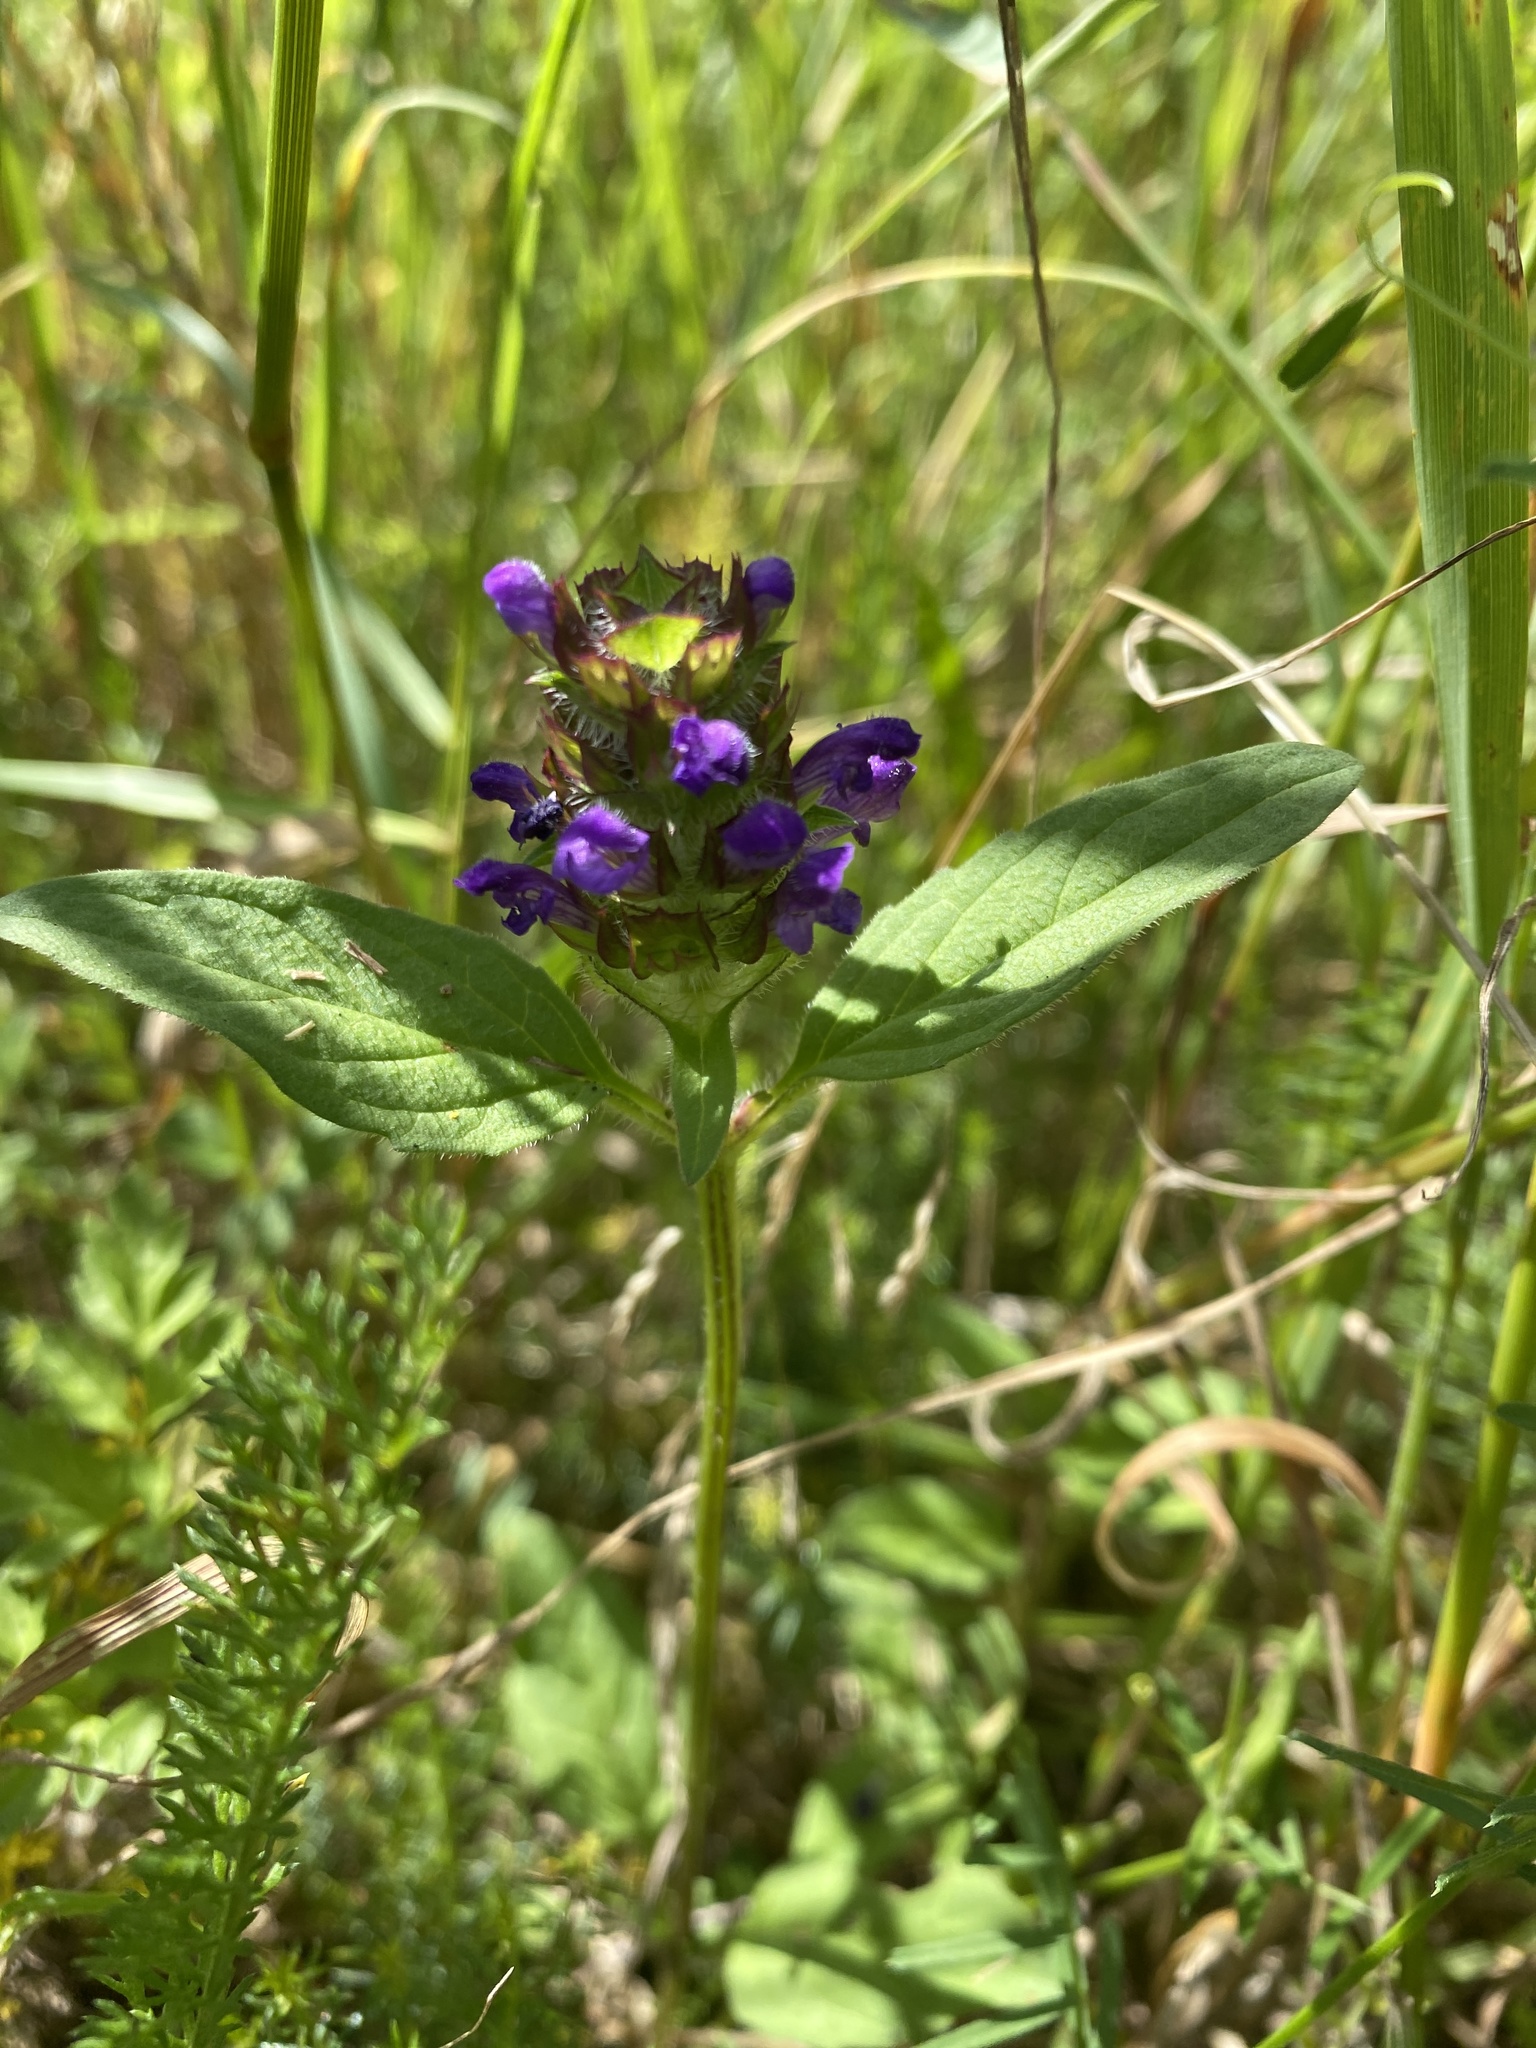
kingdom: Plantae
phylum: Tracheophyta
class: Magnoliopsida
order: Lamiales
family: Lamiaceae
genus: Prunella
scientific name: Prunella vulgaris
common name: Heal-all
